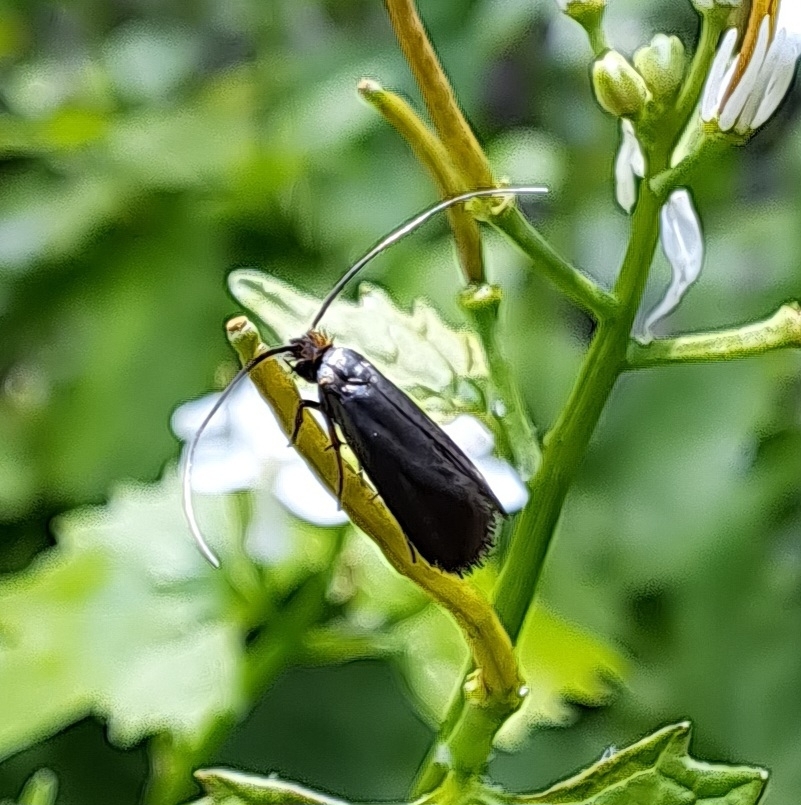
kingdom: Animalia
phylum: Arthropoda
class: Insecta
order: Lepidoptera
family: Adelidae
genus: Cauchas
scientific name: Cauchas rufimitrella
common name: Meadow long-horn
